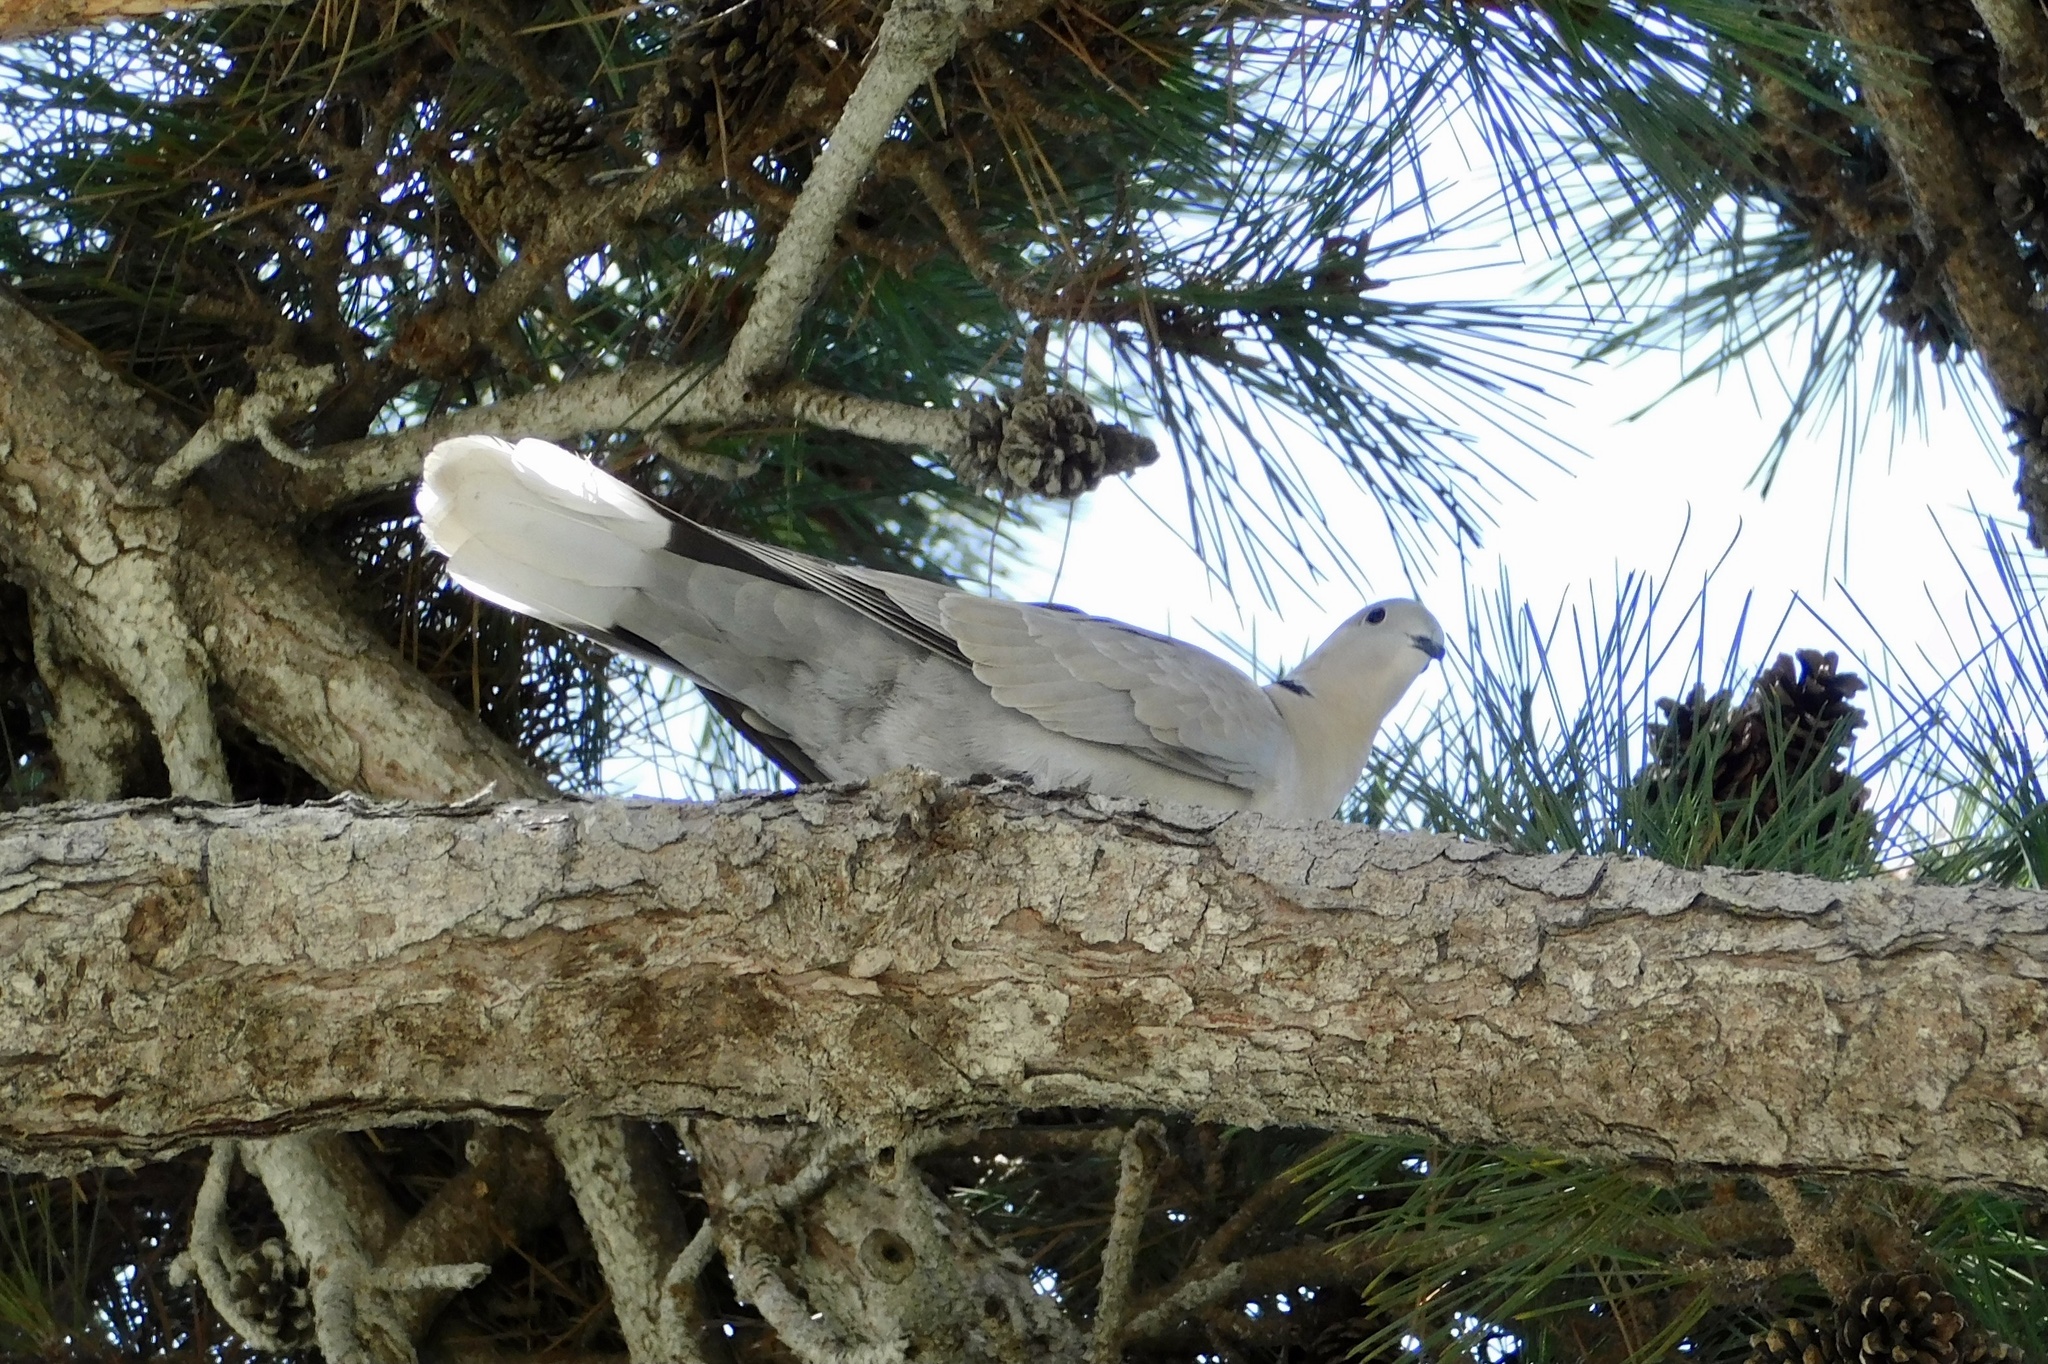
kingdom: Animalia
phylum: Chordata
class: Aves
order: Columbiformes
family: Columbidae
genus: Streptopelia
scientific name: Streptopelia decaocto
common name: Eurasian collared dove
